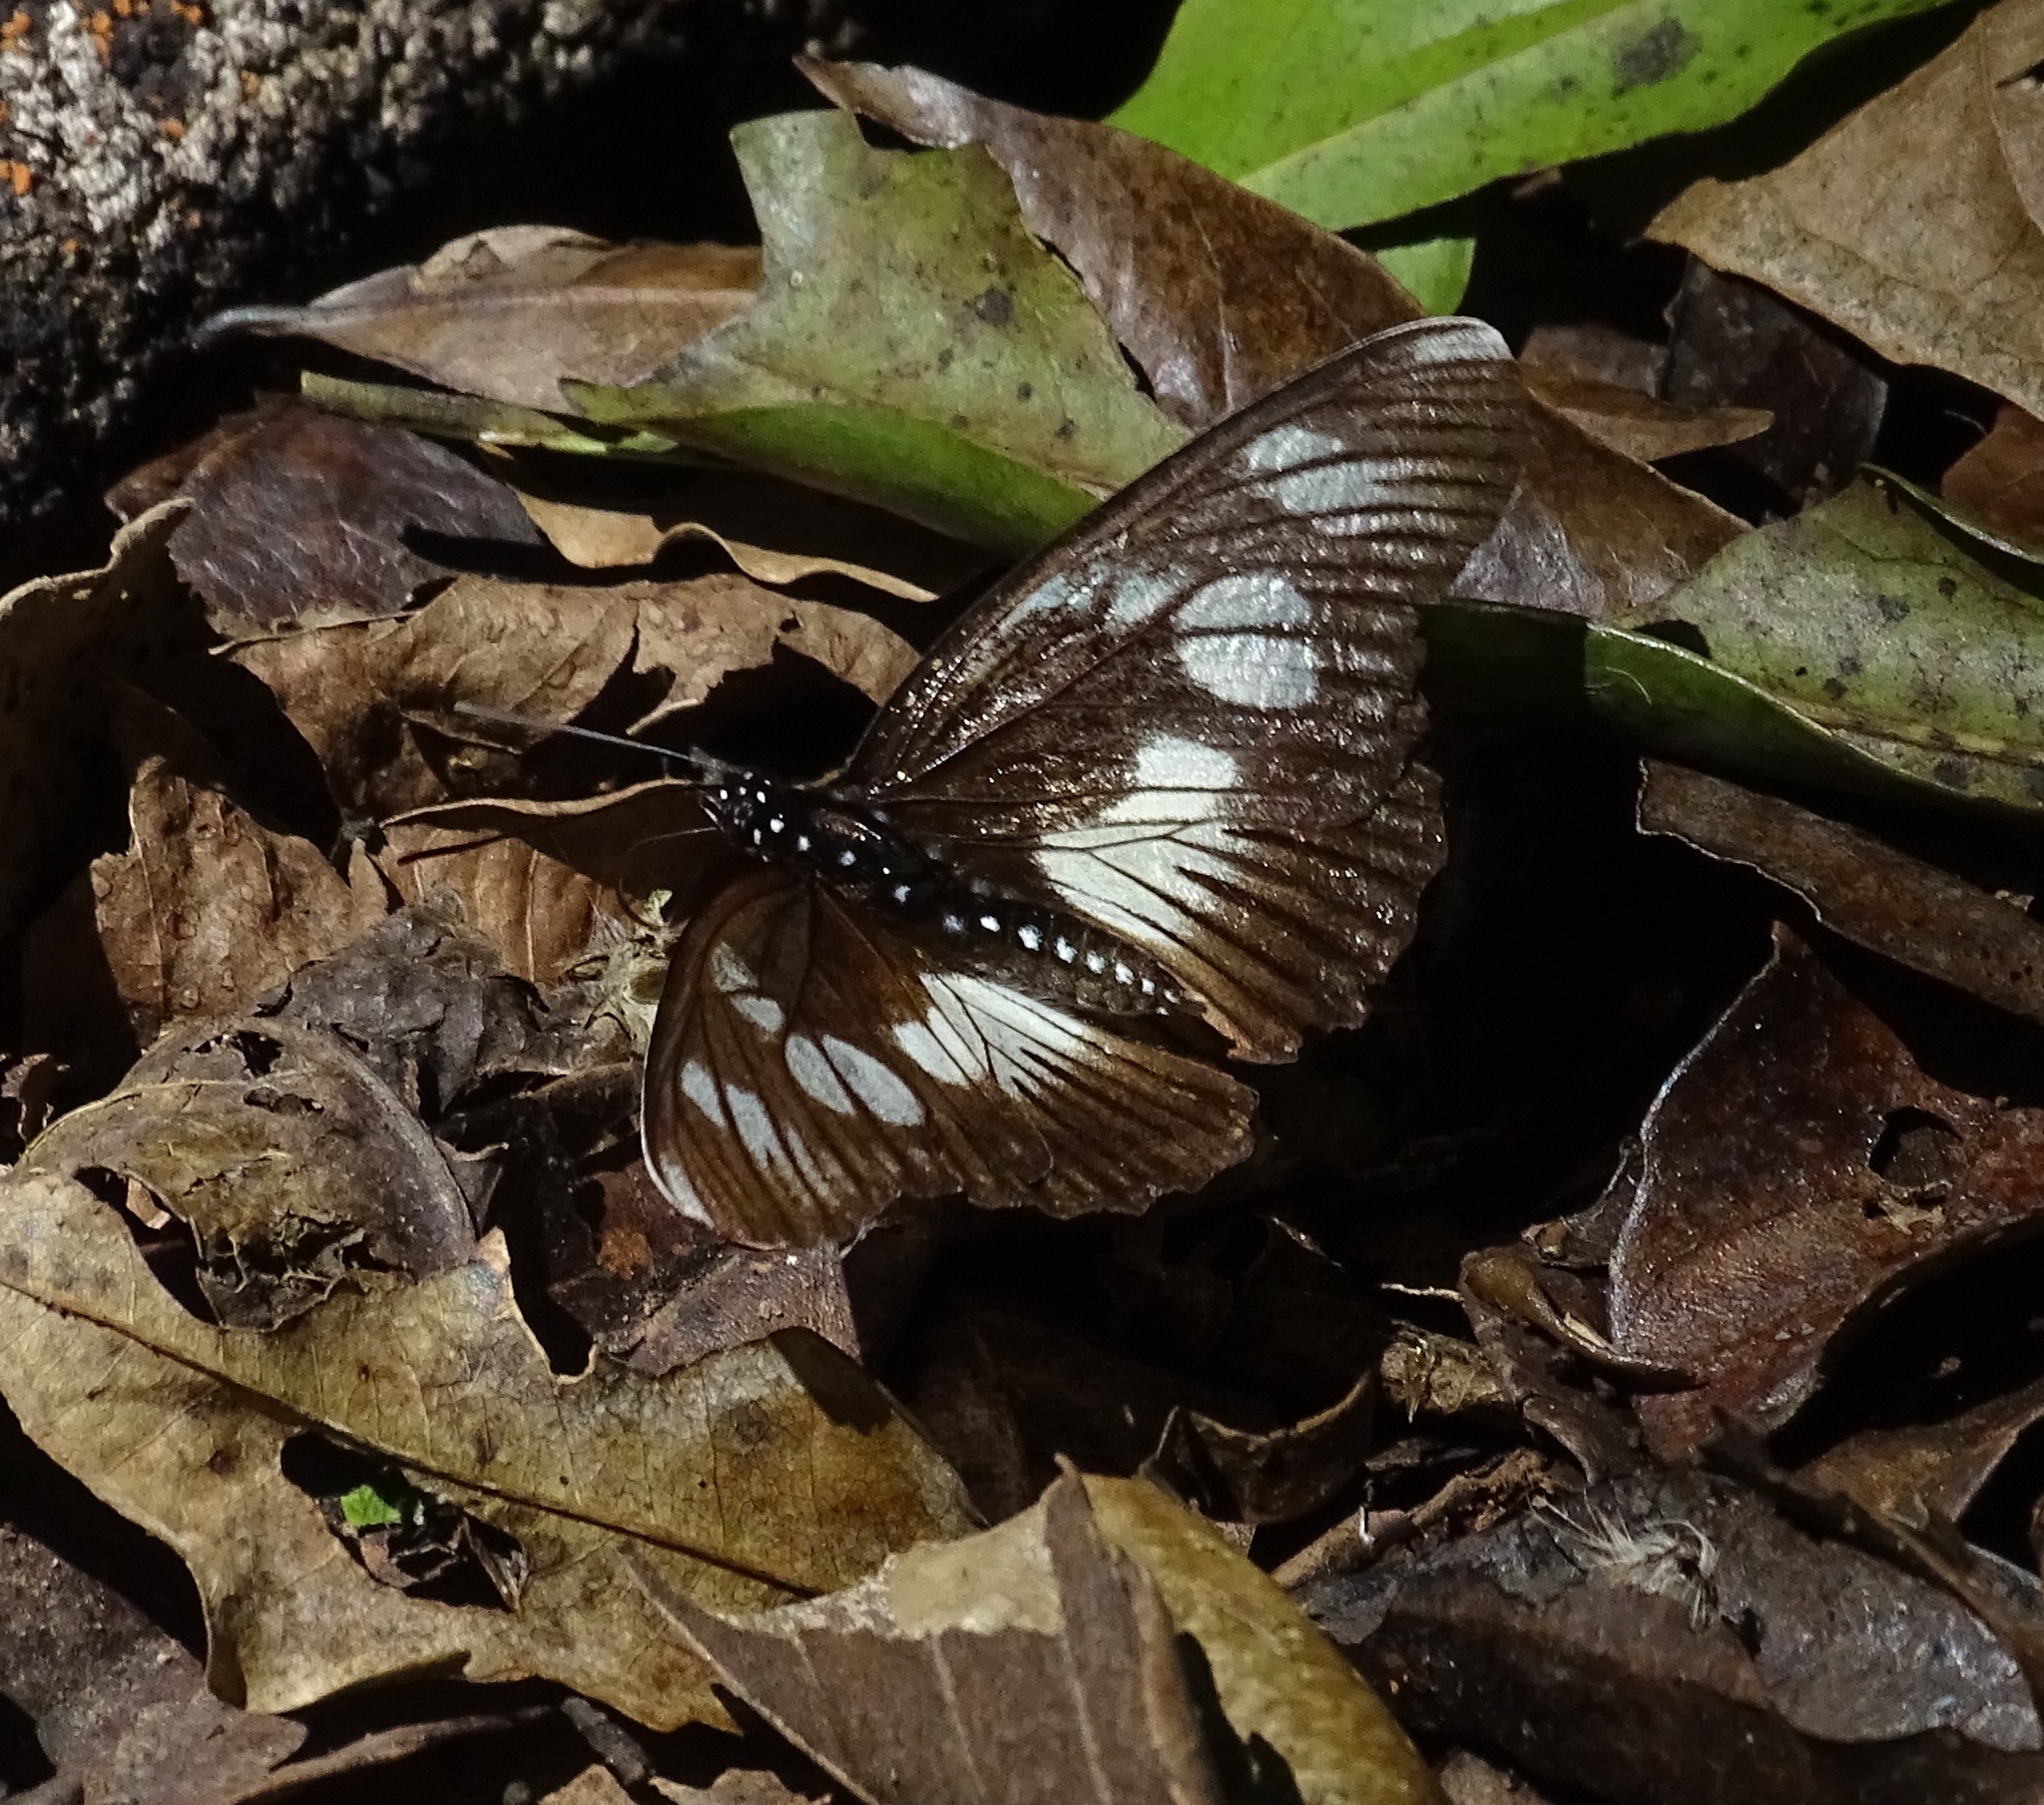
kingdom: Animalia
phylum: Arthropoda
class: Insecta
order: Lepidoptera
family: Nymphalidae
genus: Chloropoea
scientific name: Chloropoea lucretia
